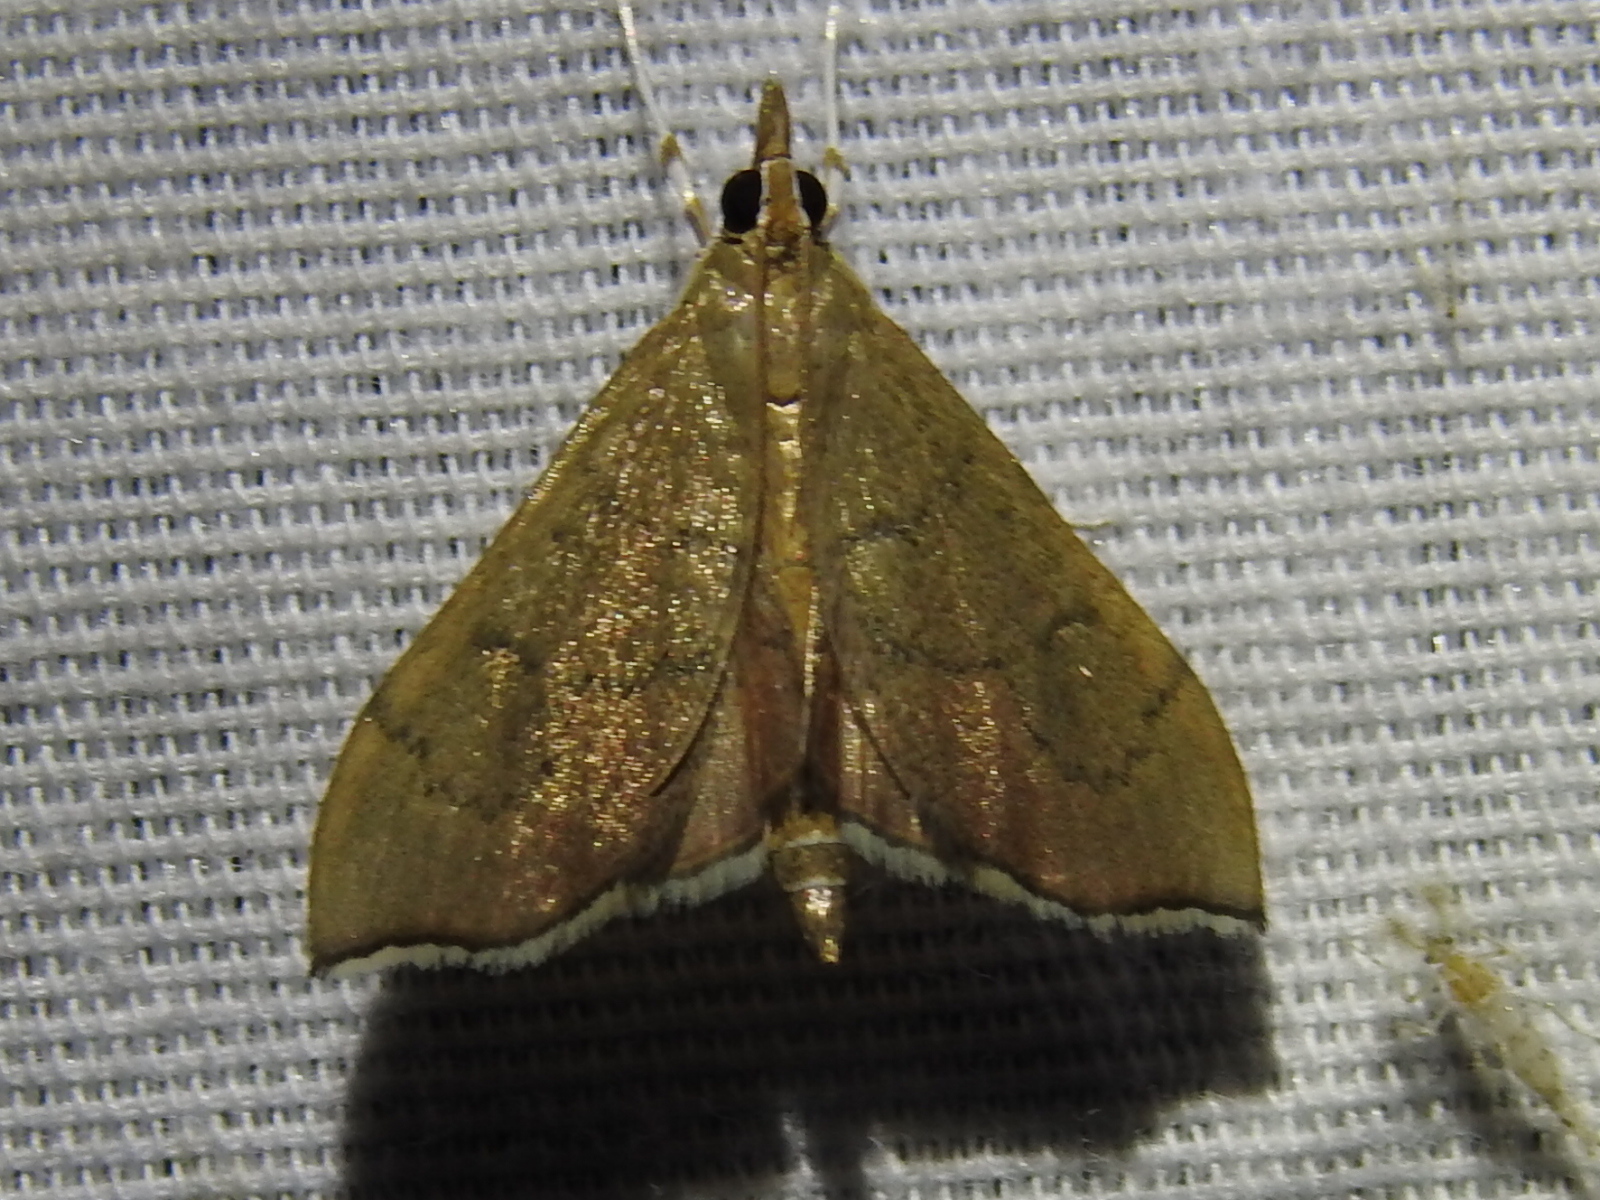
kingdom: Animalia
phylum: Arthropoda
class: Insecta
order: Lepidoptera
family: Crambidae
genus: Sericoplaga
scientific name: Sericoplaga externalis
